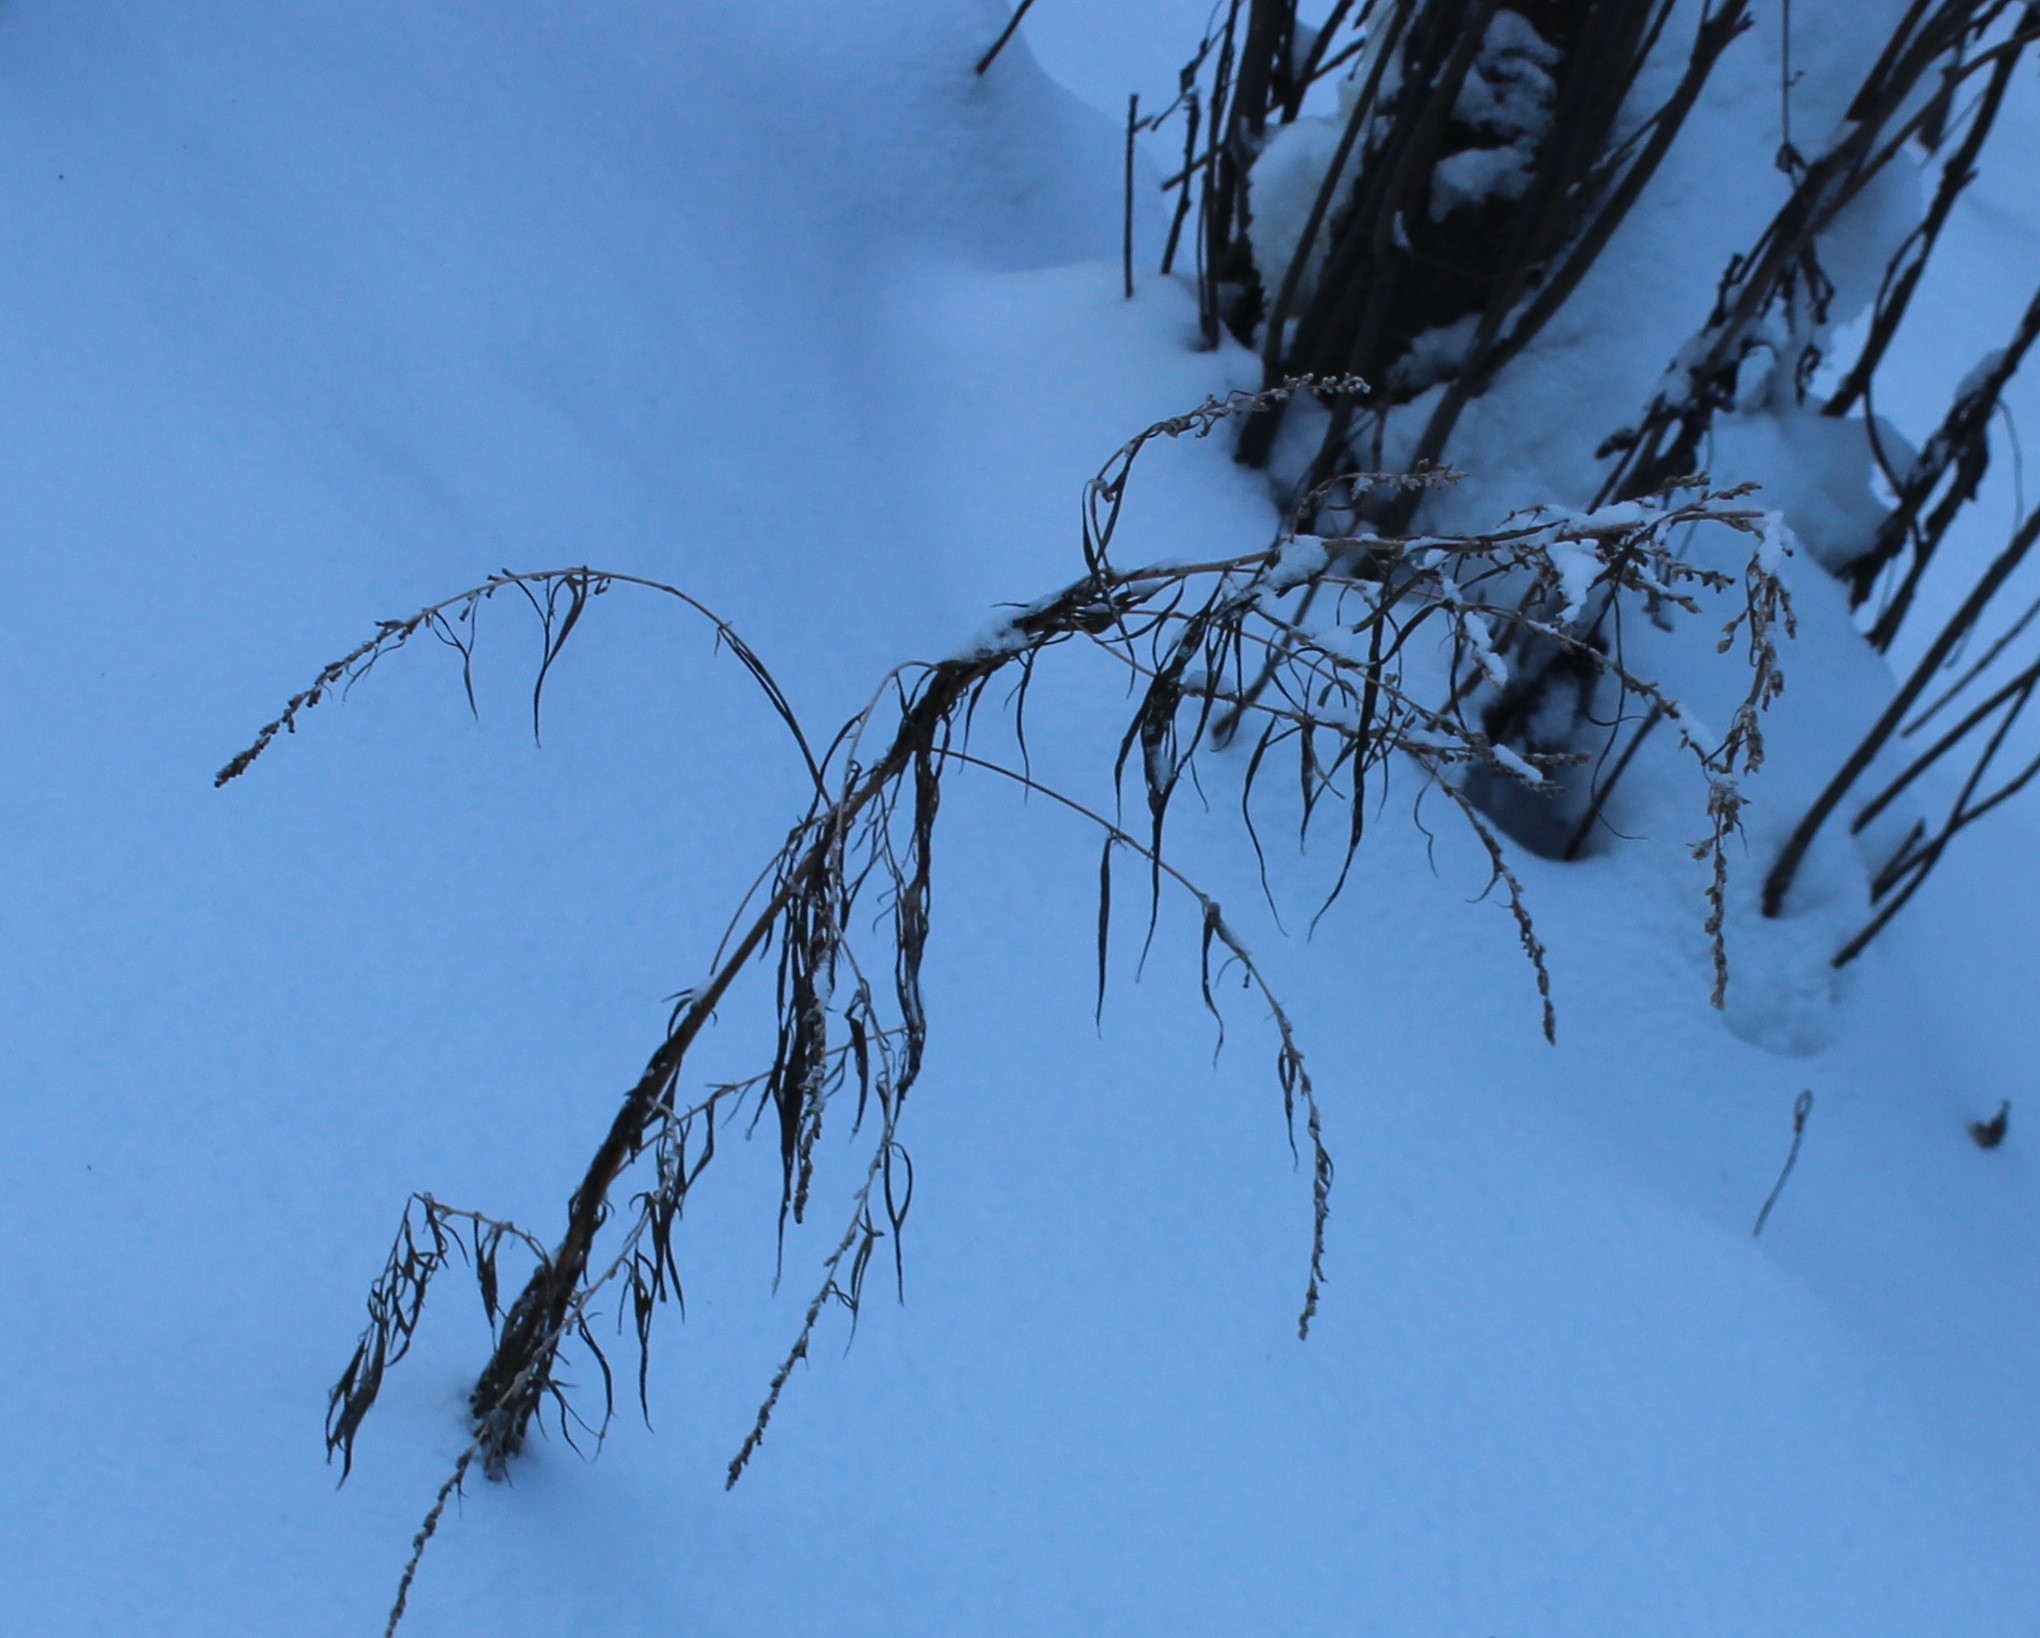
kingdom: Plantae
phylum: Tracheophyta
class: Magnoliopsida
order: Asterales
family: Asteraceae
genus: Artemisia
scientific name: Artemisia vulgaris
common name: Mugwort
